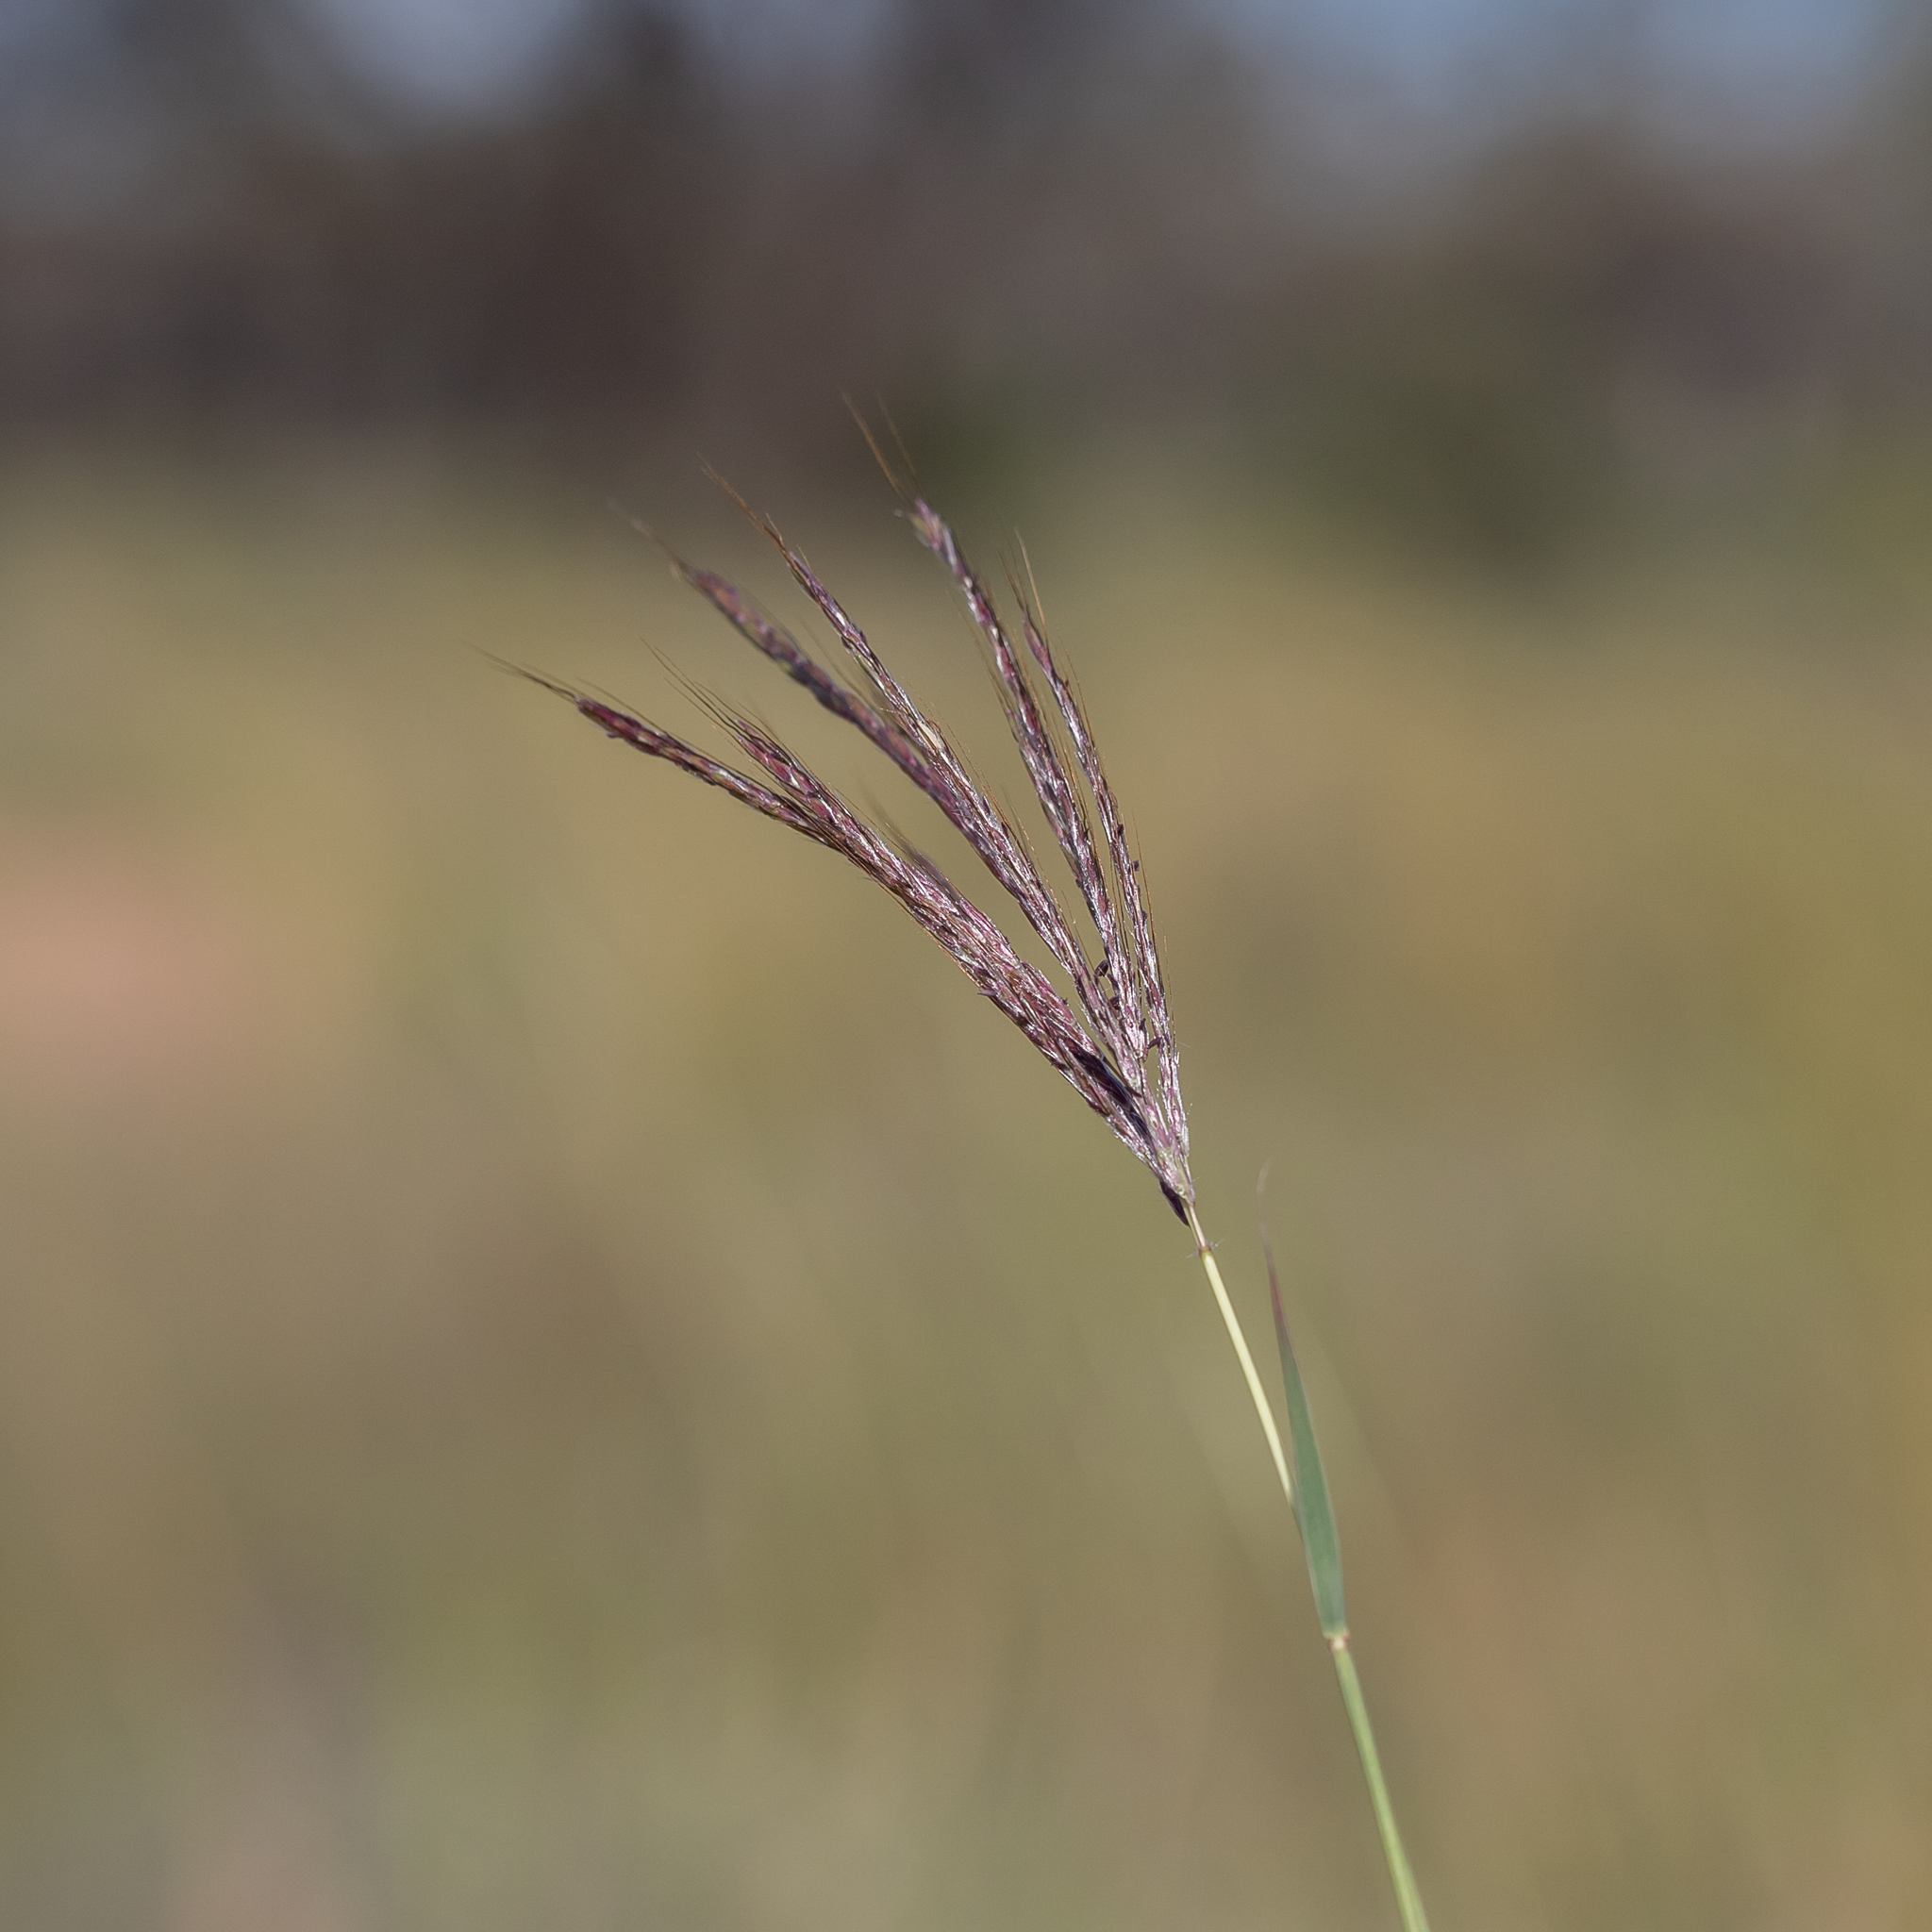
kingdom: Plantae
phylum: Tracheophyta
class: Liliopsida
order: Poales
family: Poaceae
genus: Bothriochloa
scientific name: Bothriochloa ewartiana
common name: Desert-bluegrass
